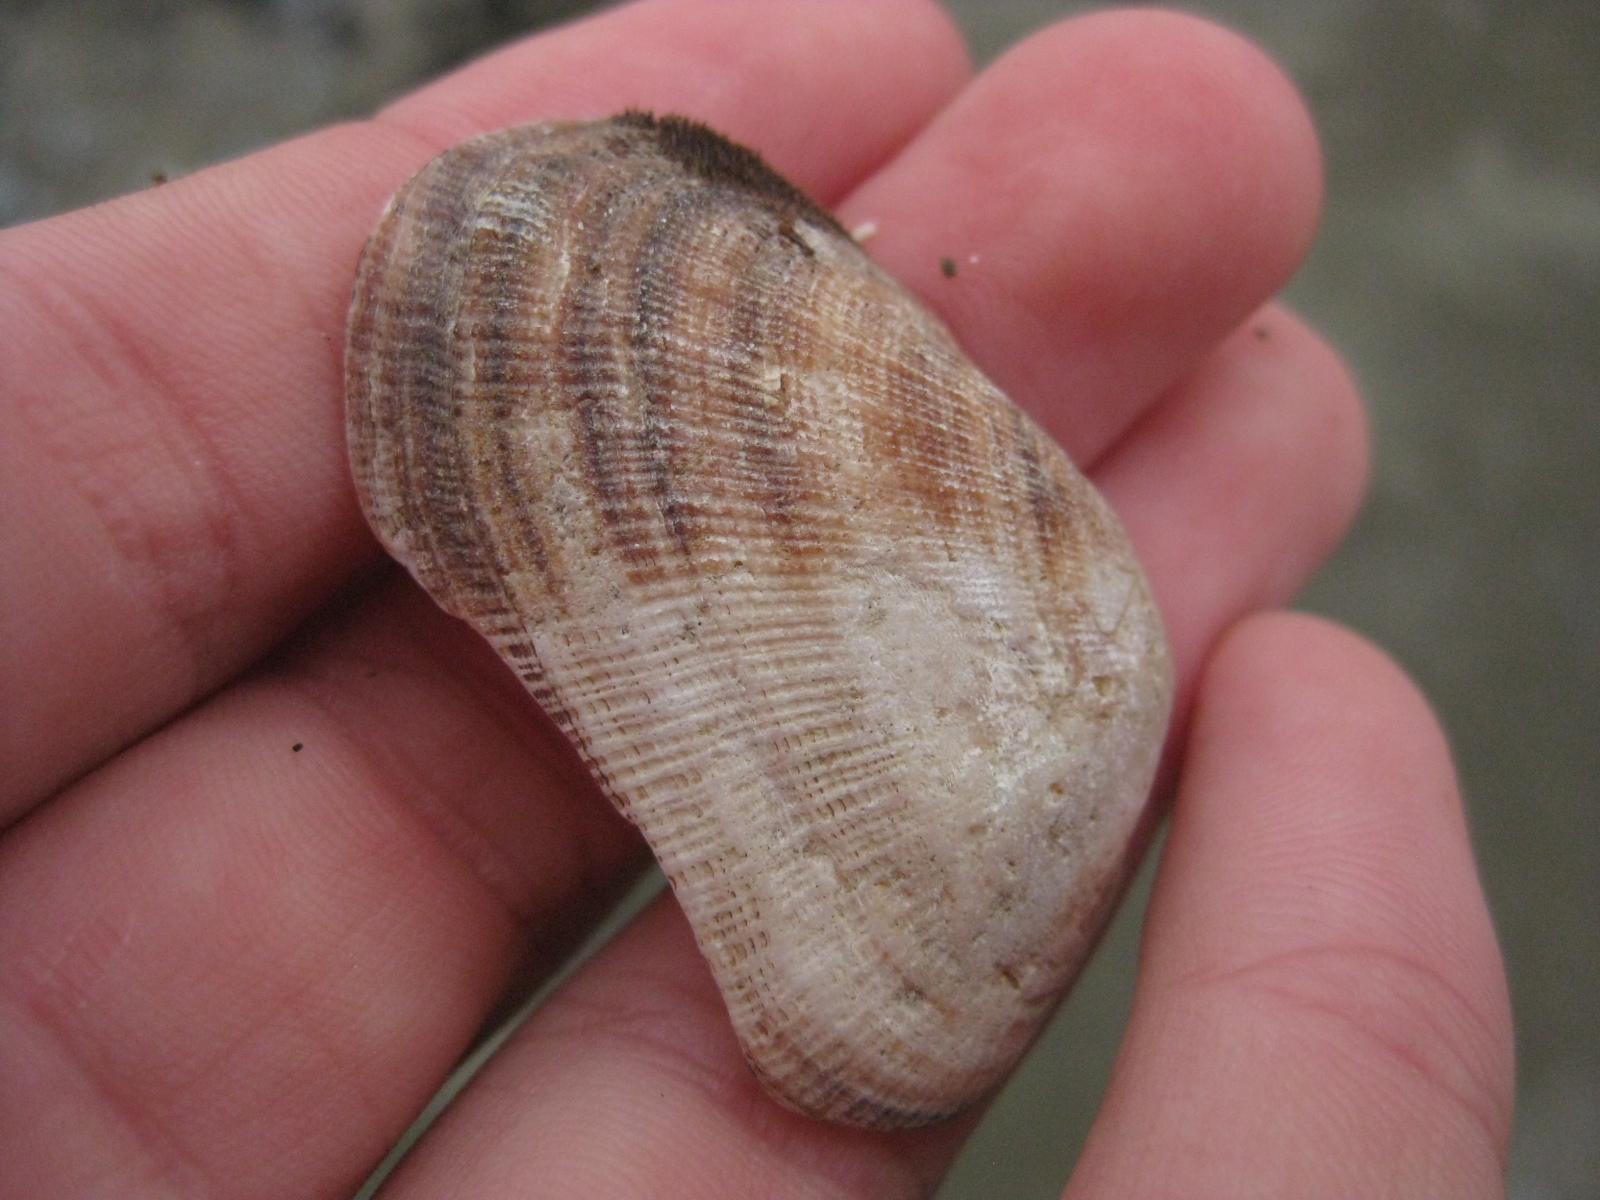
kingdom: Animalia
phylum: Mollusca
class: Bivalvia
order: Arcida
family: Arcidae
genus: Barbatia
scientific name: Barbatia novaezealandiae
